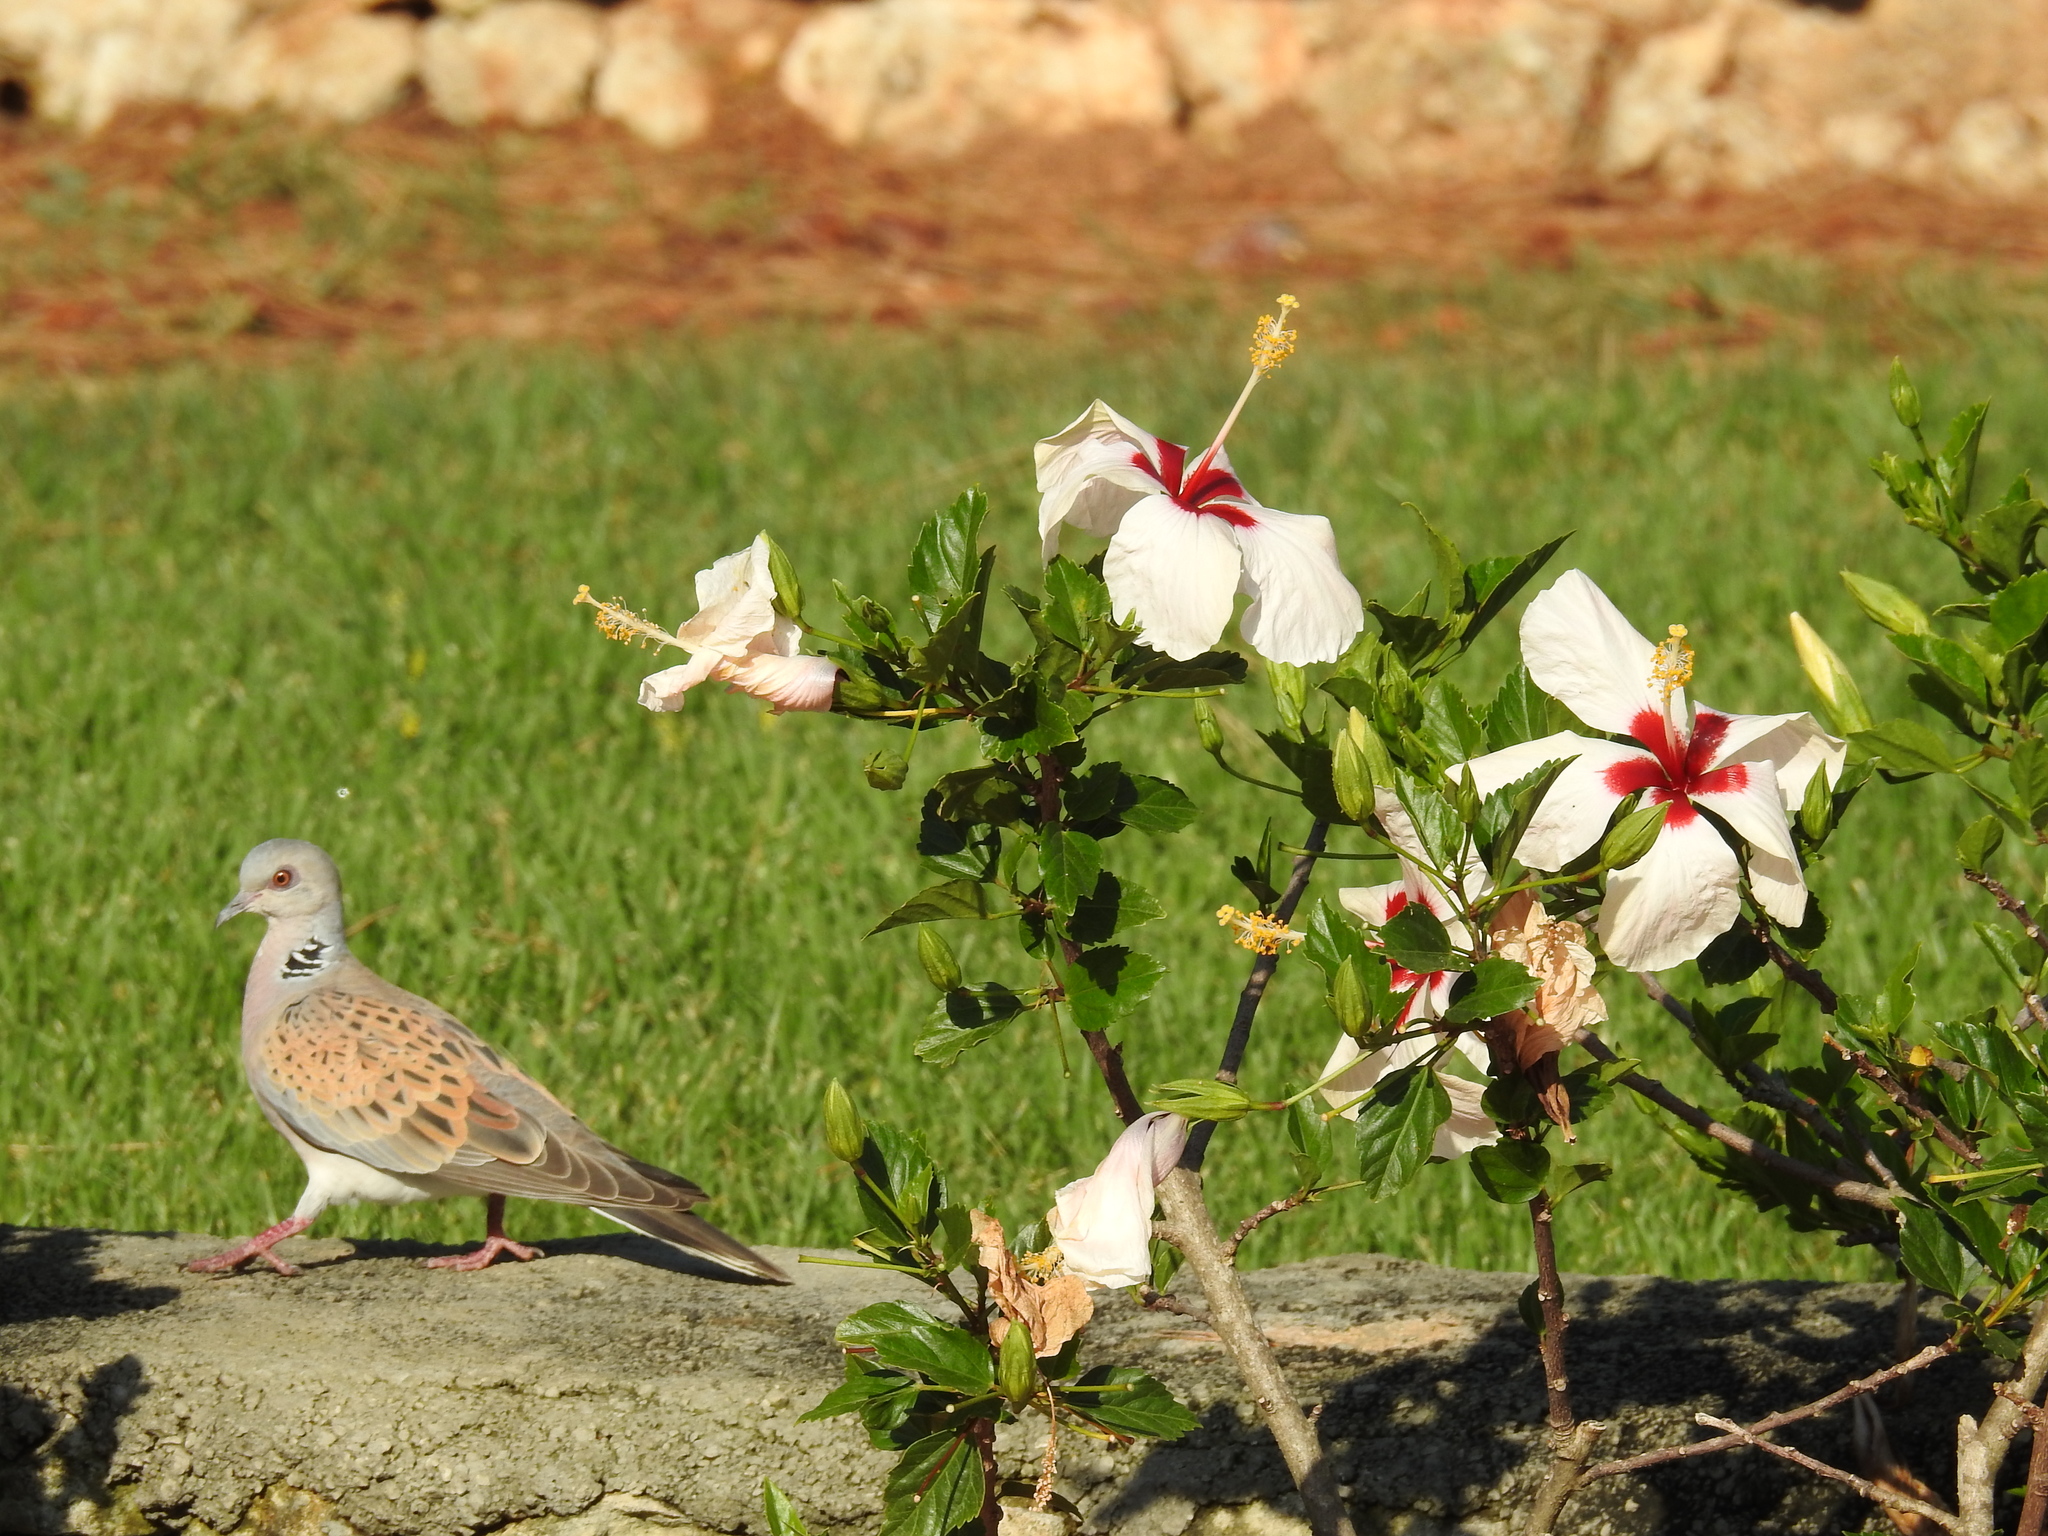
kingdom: Animalia
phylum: Chordata
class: Aves
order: Columbiformes
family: Columbidae
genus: Streptopelia
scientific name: Streptopelia turtur
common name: European turtle dove
